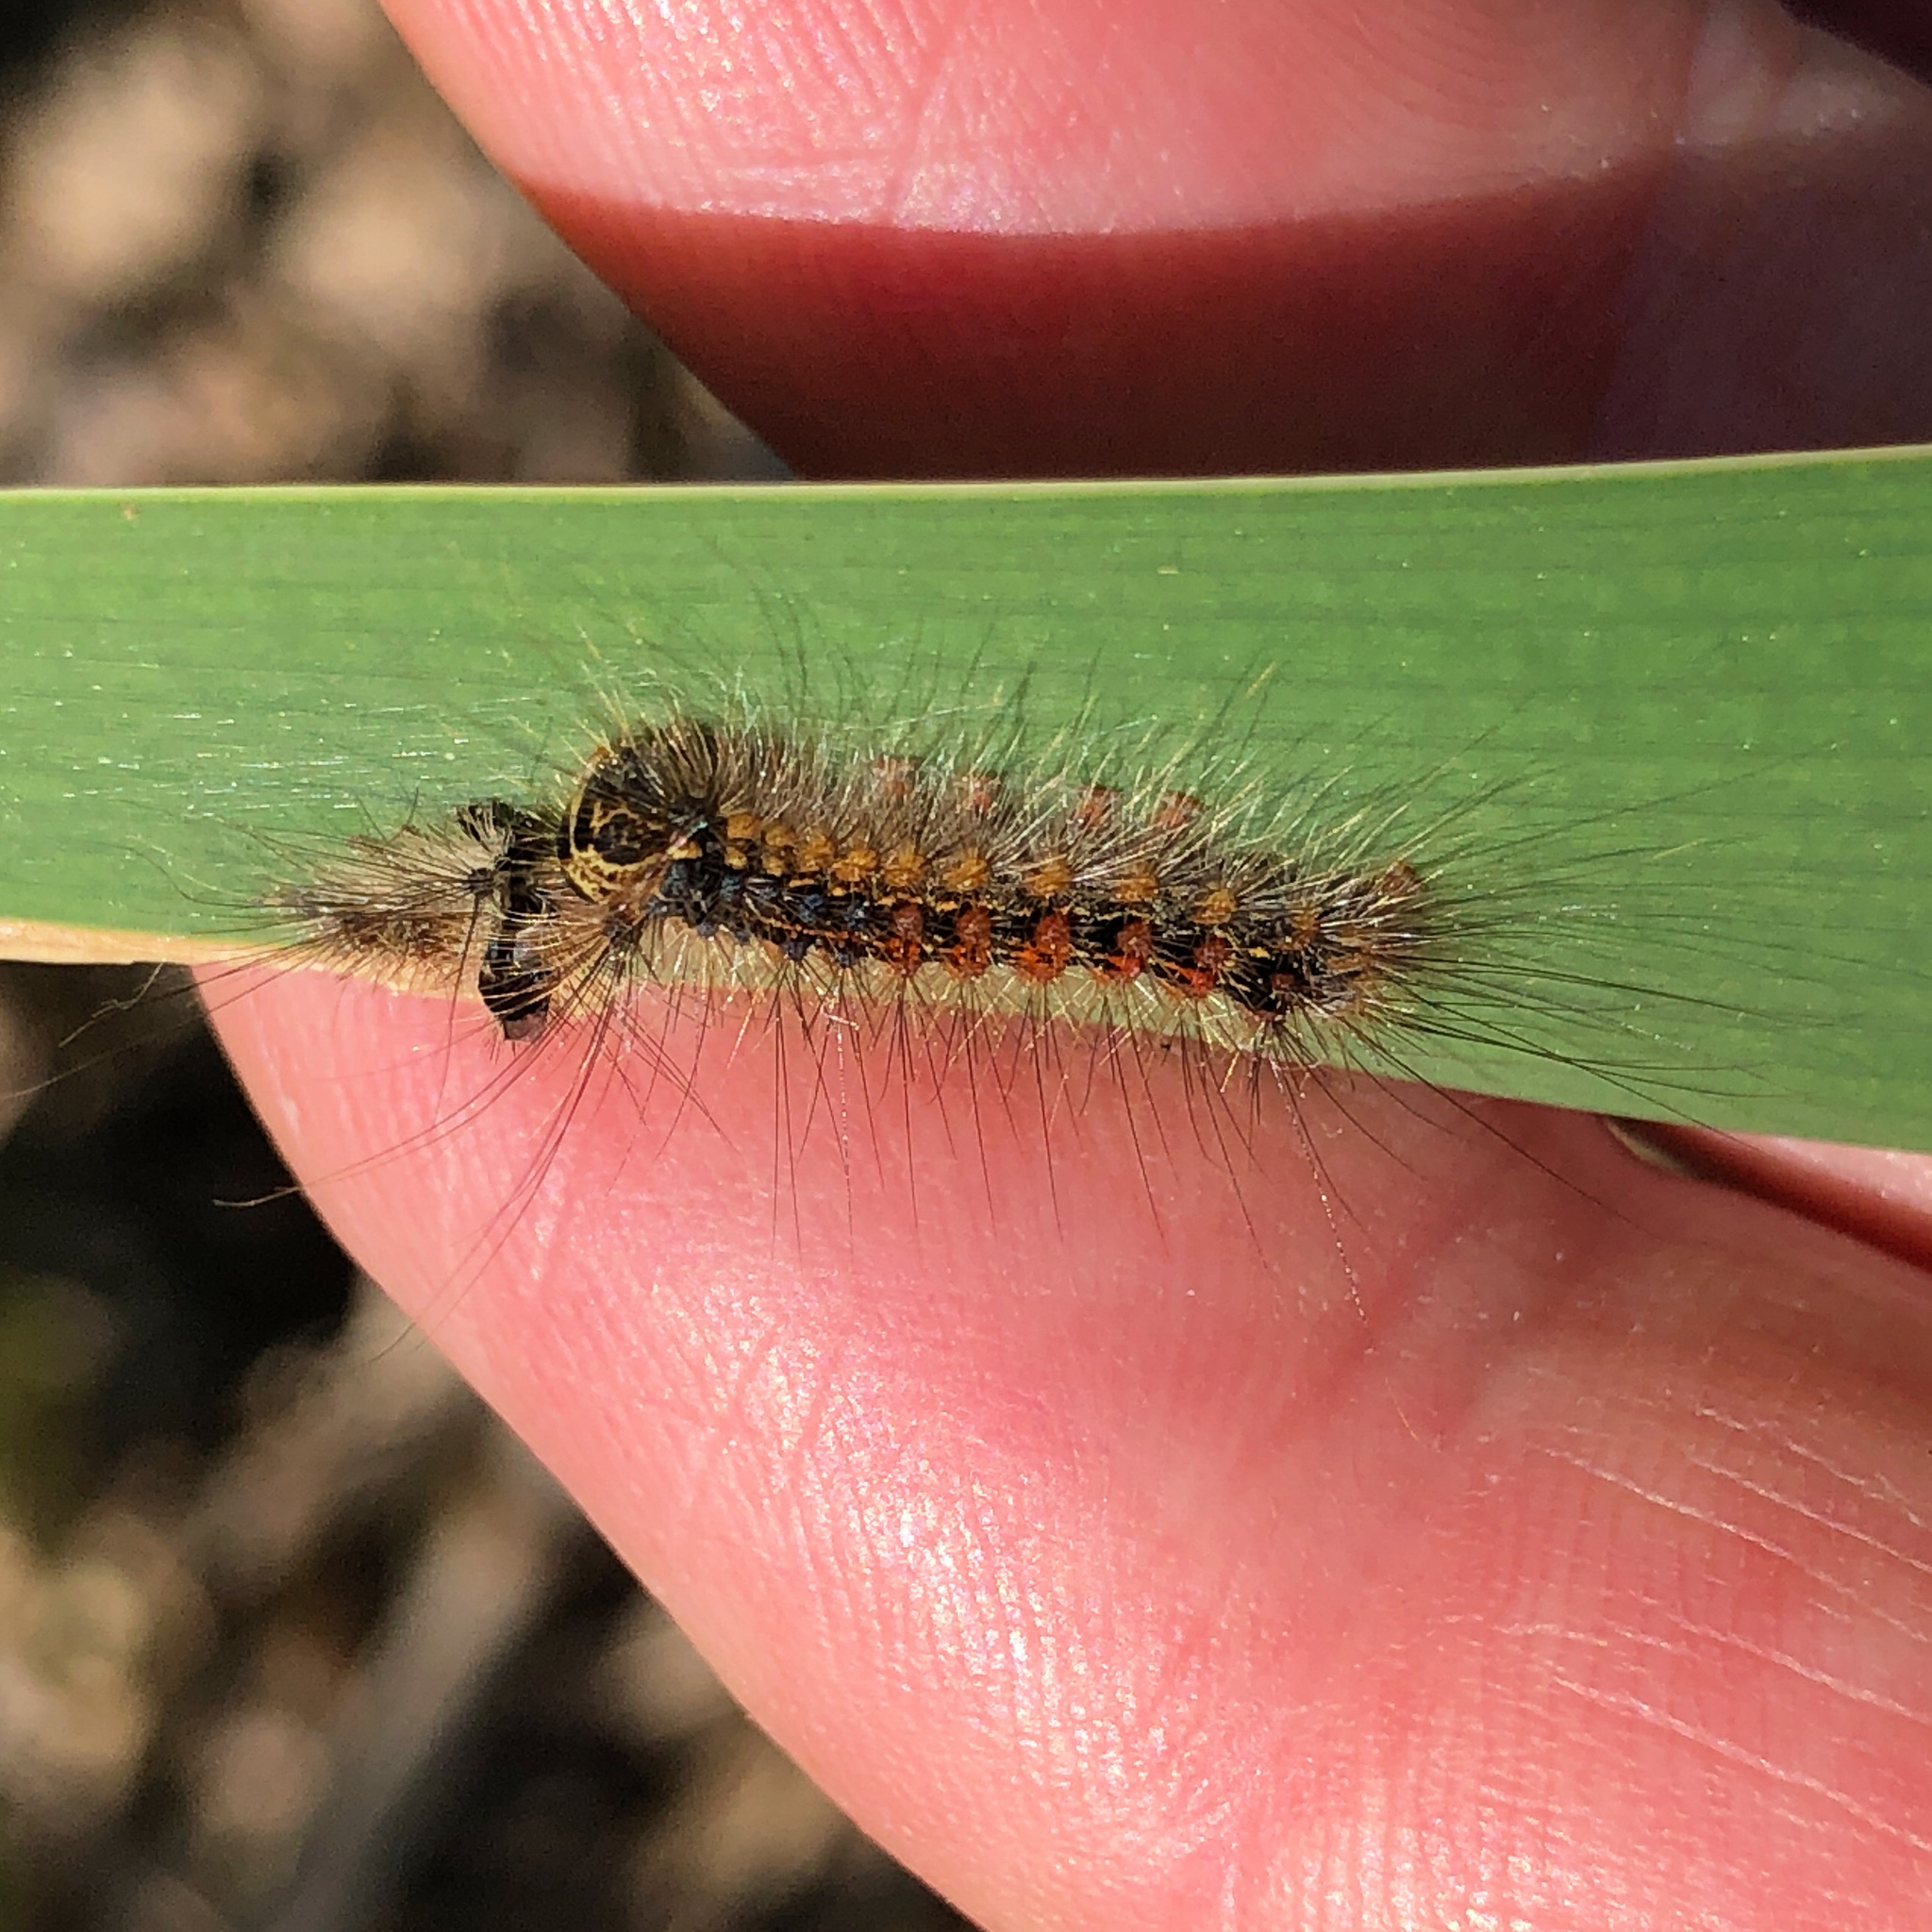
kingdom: Animalia
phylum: Arthropoda
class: Insecta
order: Lepidoptera
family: Erebidae
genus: Lymantria
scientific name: Lymantria dispar
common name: Gypsy moth
